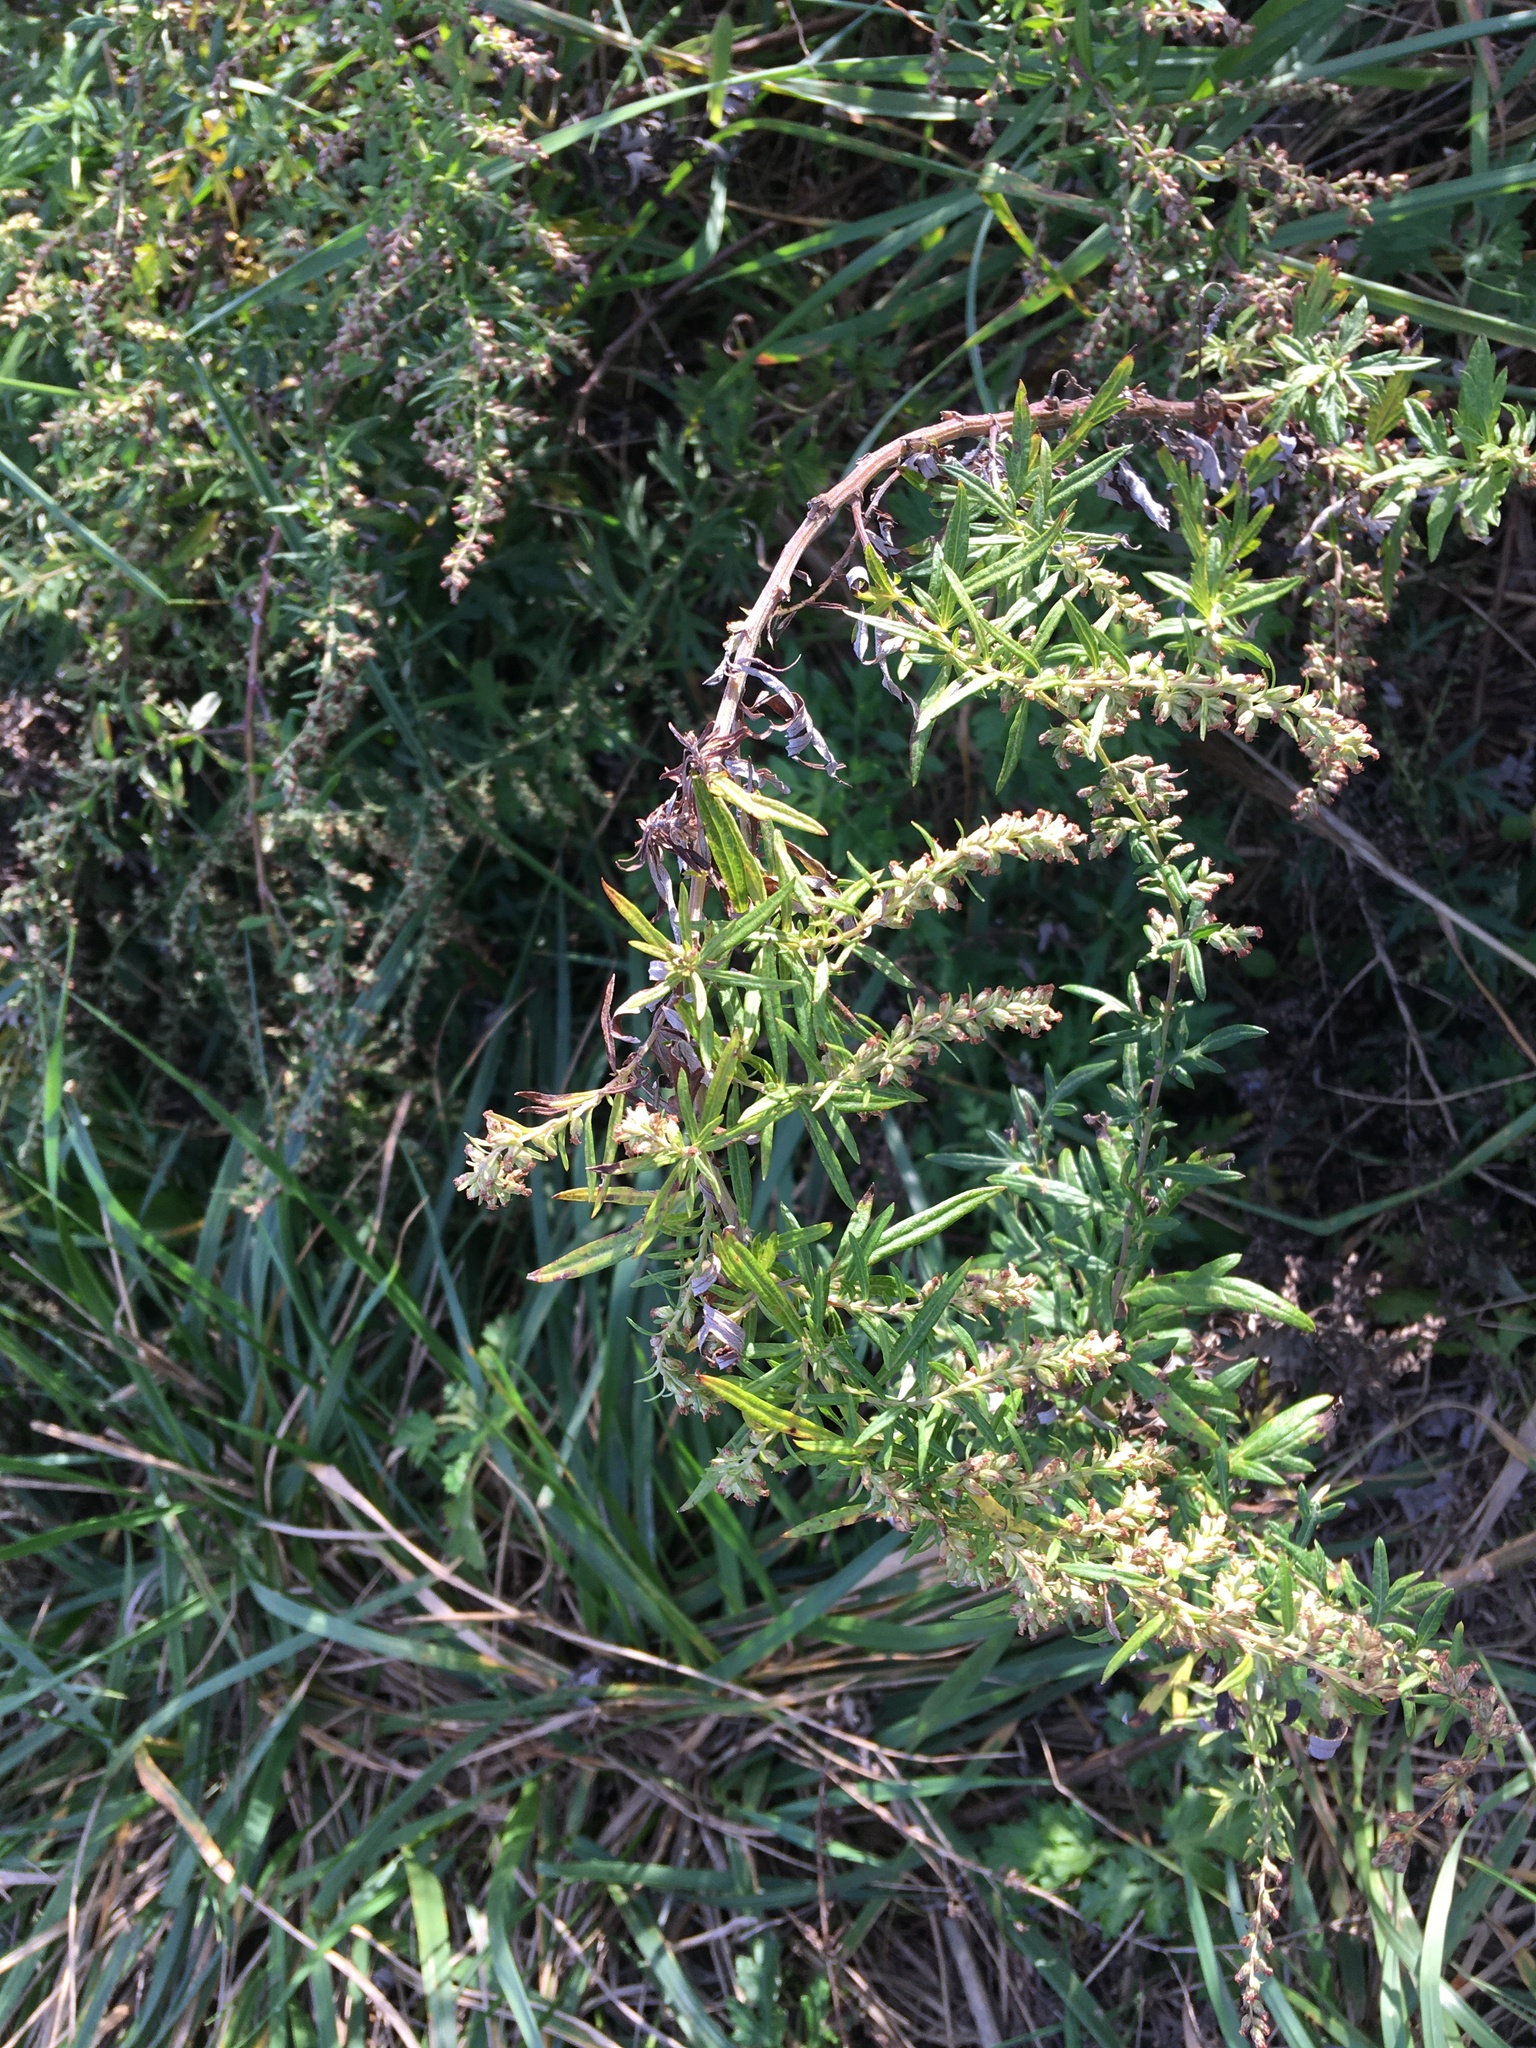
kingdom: Plantae
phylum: Tracheophyta
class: Magnoliopsida
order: Asterales
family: Asteraceae
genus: Artemisia
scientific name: Artemisia vulgaris
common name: Mugwort
